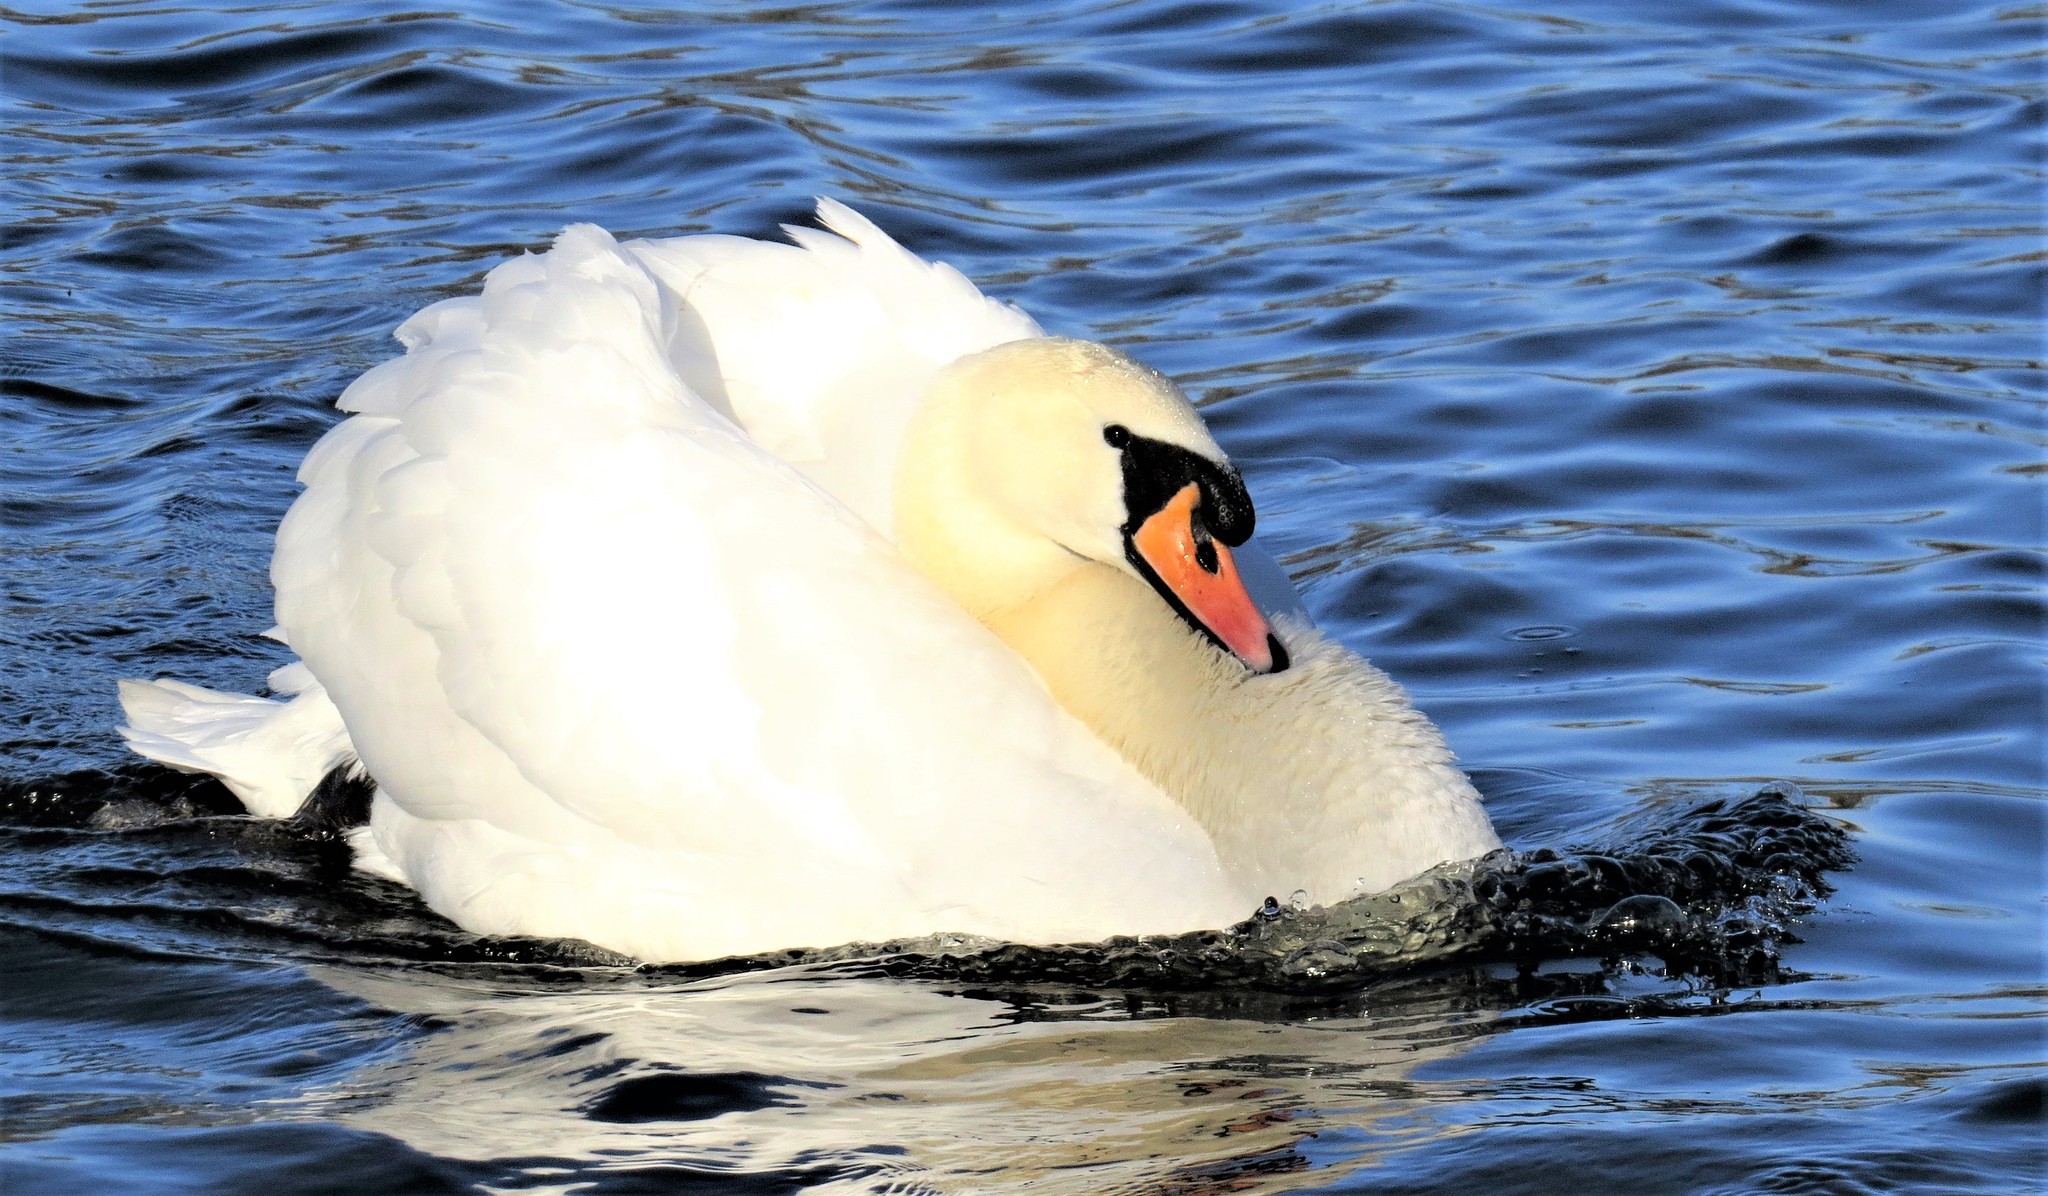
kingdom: Animalia
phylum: Chordata
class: Aves
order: Anseriformes
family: Anatidae
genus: Cygnus
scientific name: Cygnus olor
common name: Mute swan
